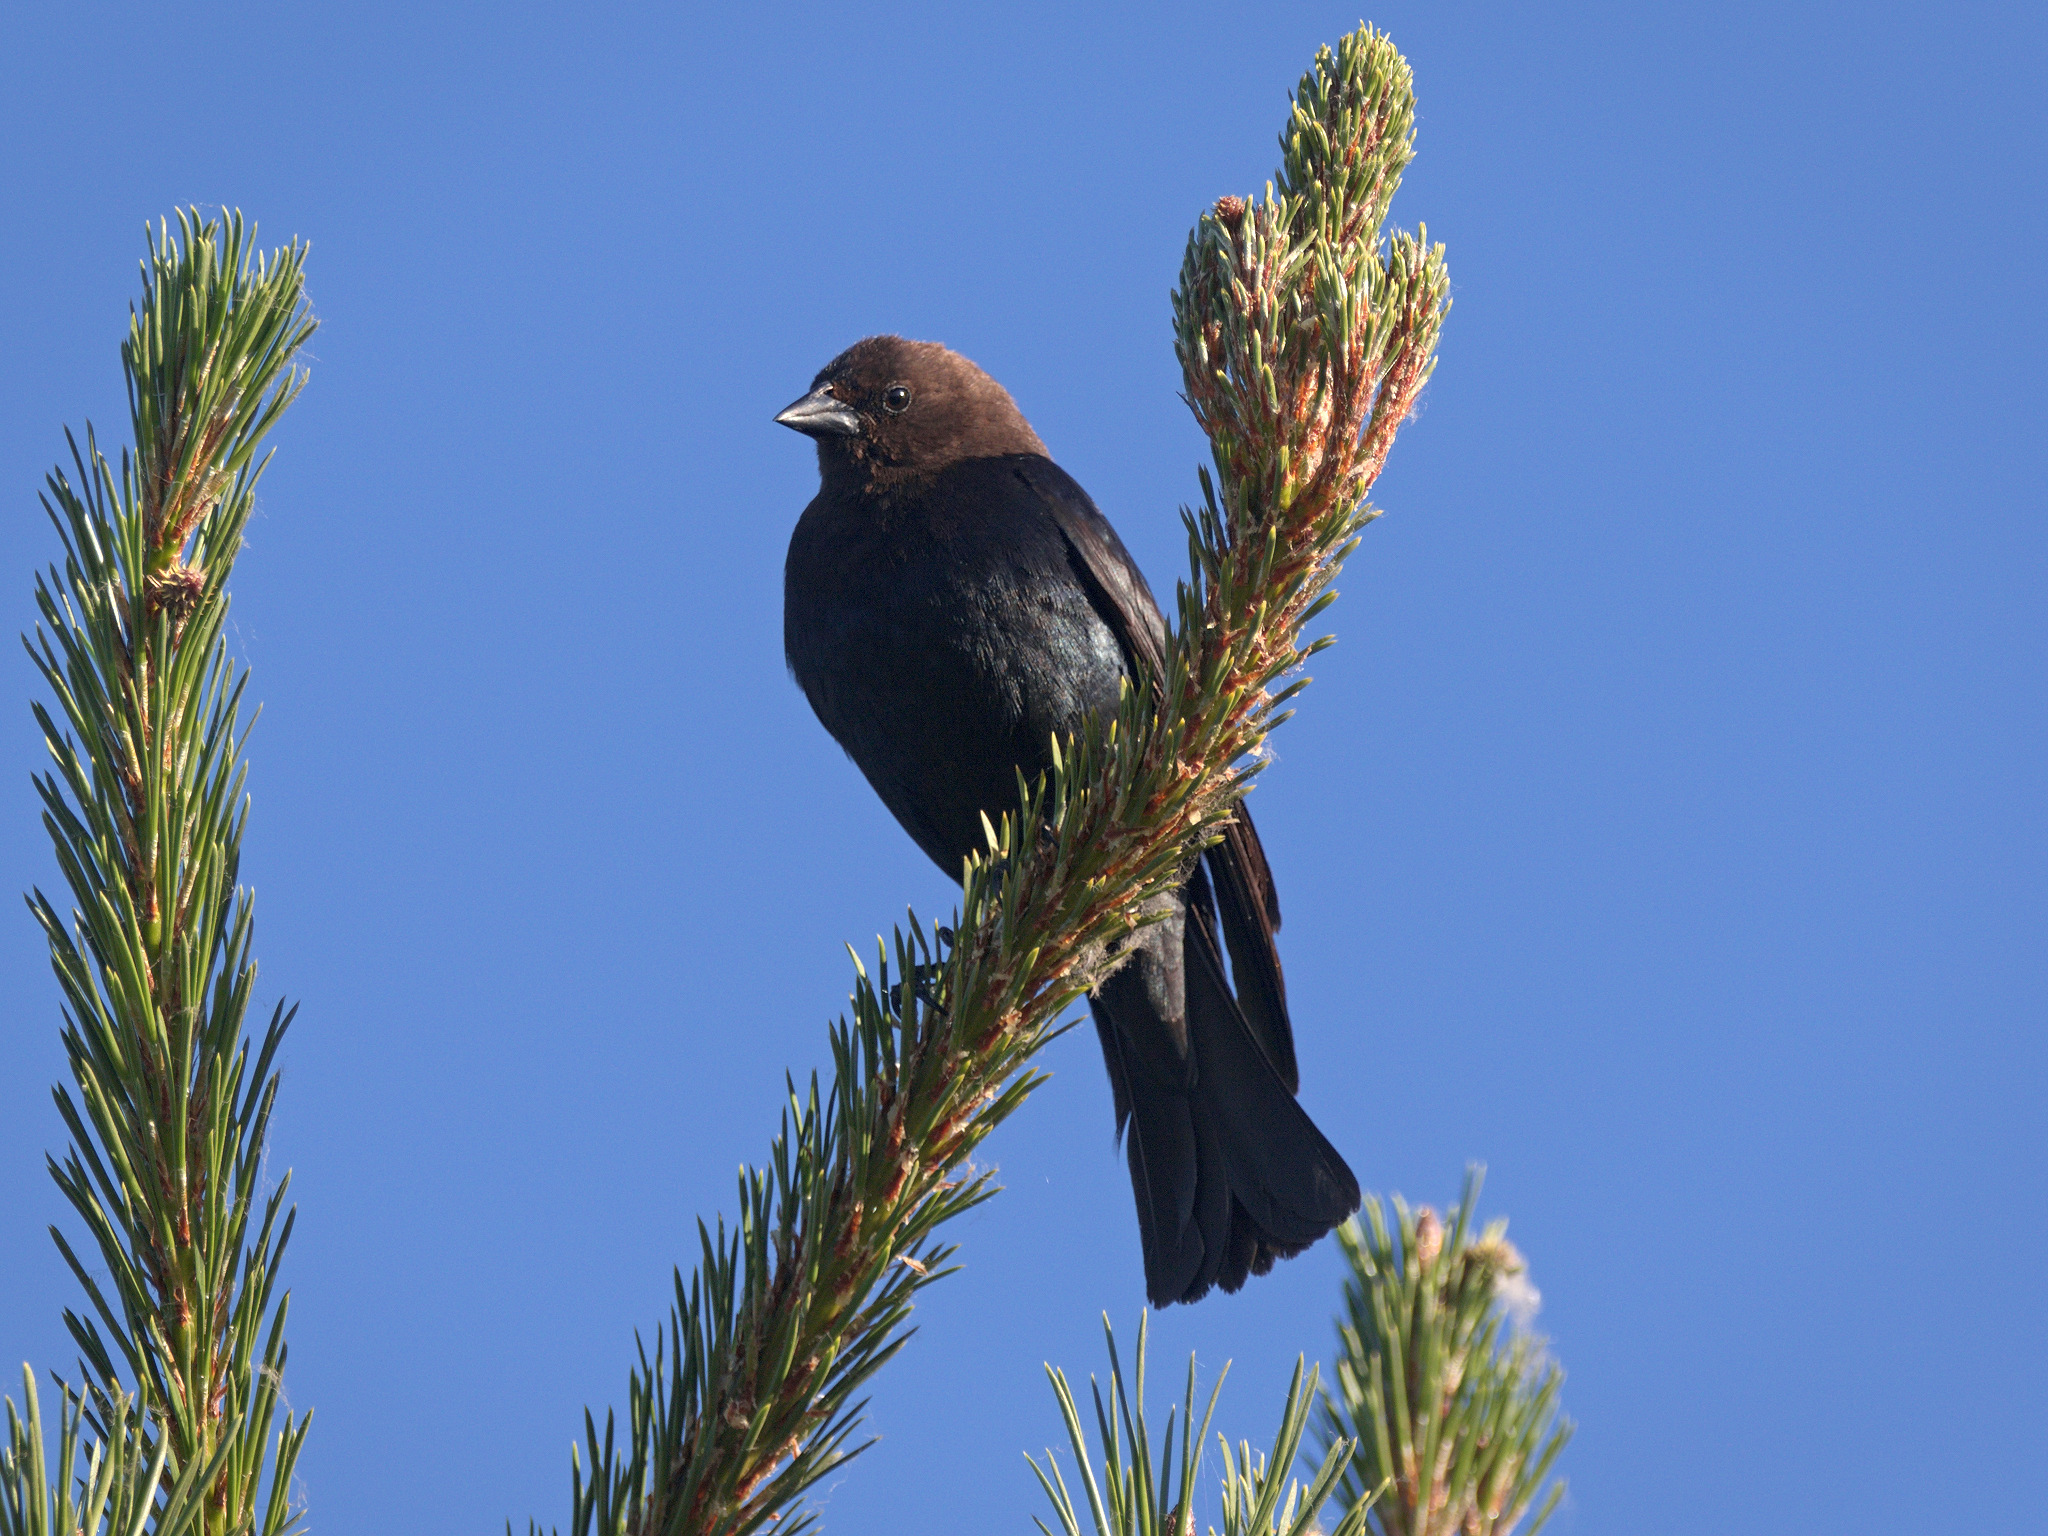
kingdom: Animalia
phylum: Chordata
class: Aves
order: Passeriformes
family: Icteridae
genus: Molothrus
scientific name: Molothrus ater
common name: Brown-headed cowbird
